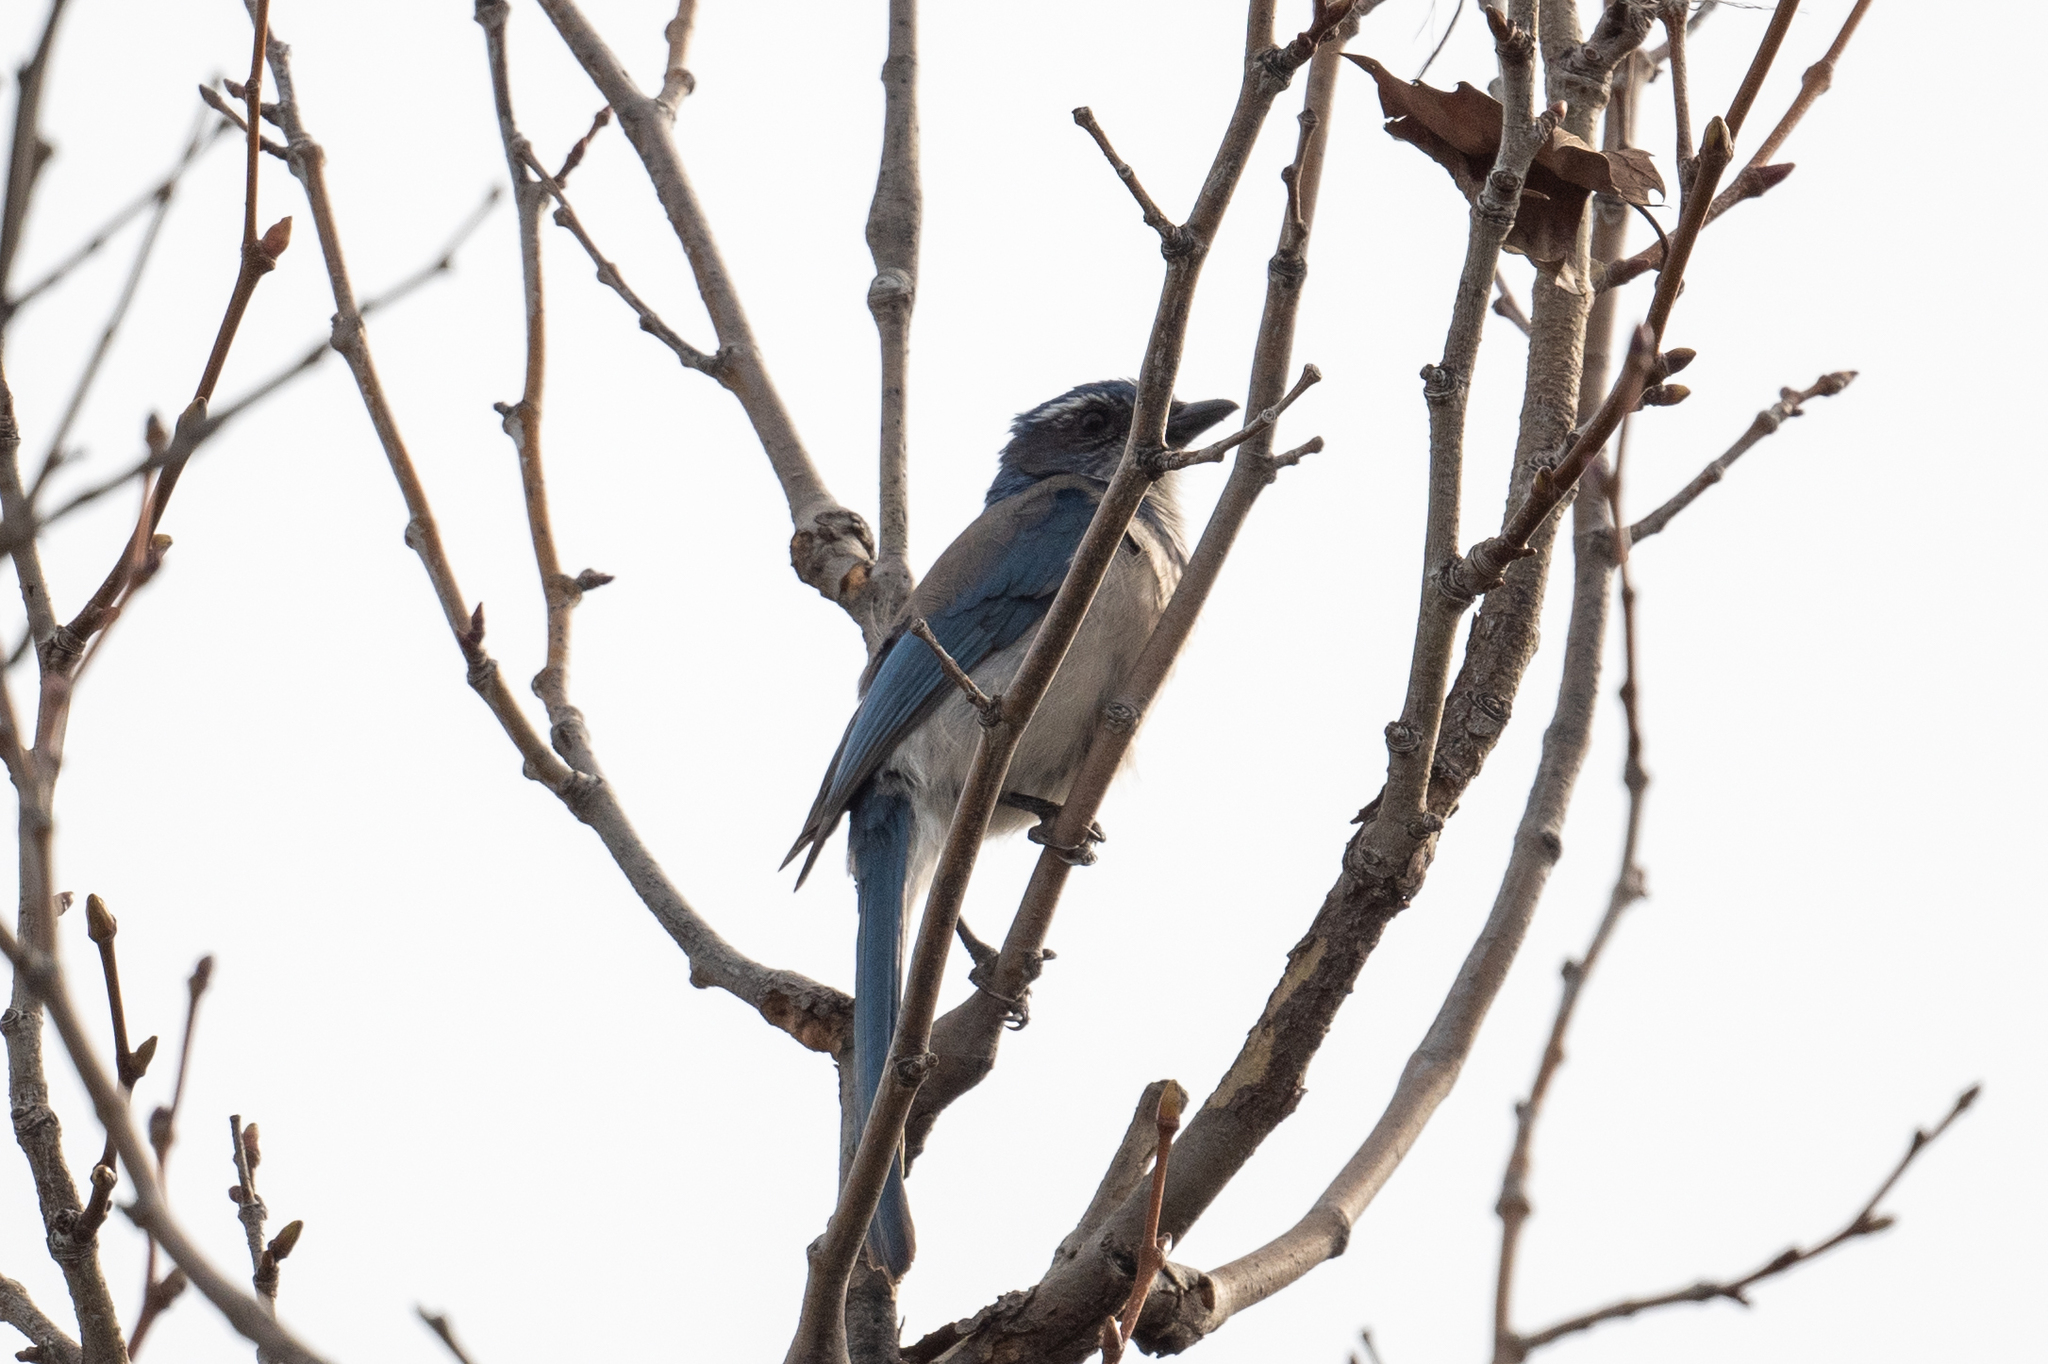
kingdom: Animalia
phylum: Chordata
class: Aves
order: Passeriformes
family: Corvidae
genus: Aphelocoma
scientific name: Aphelocoma californica
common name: California scrub-jay
